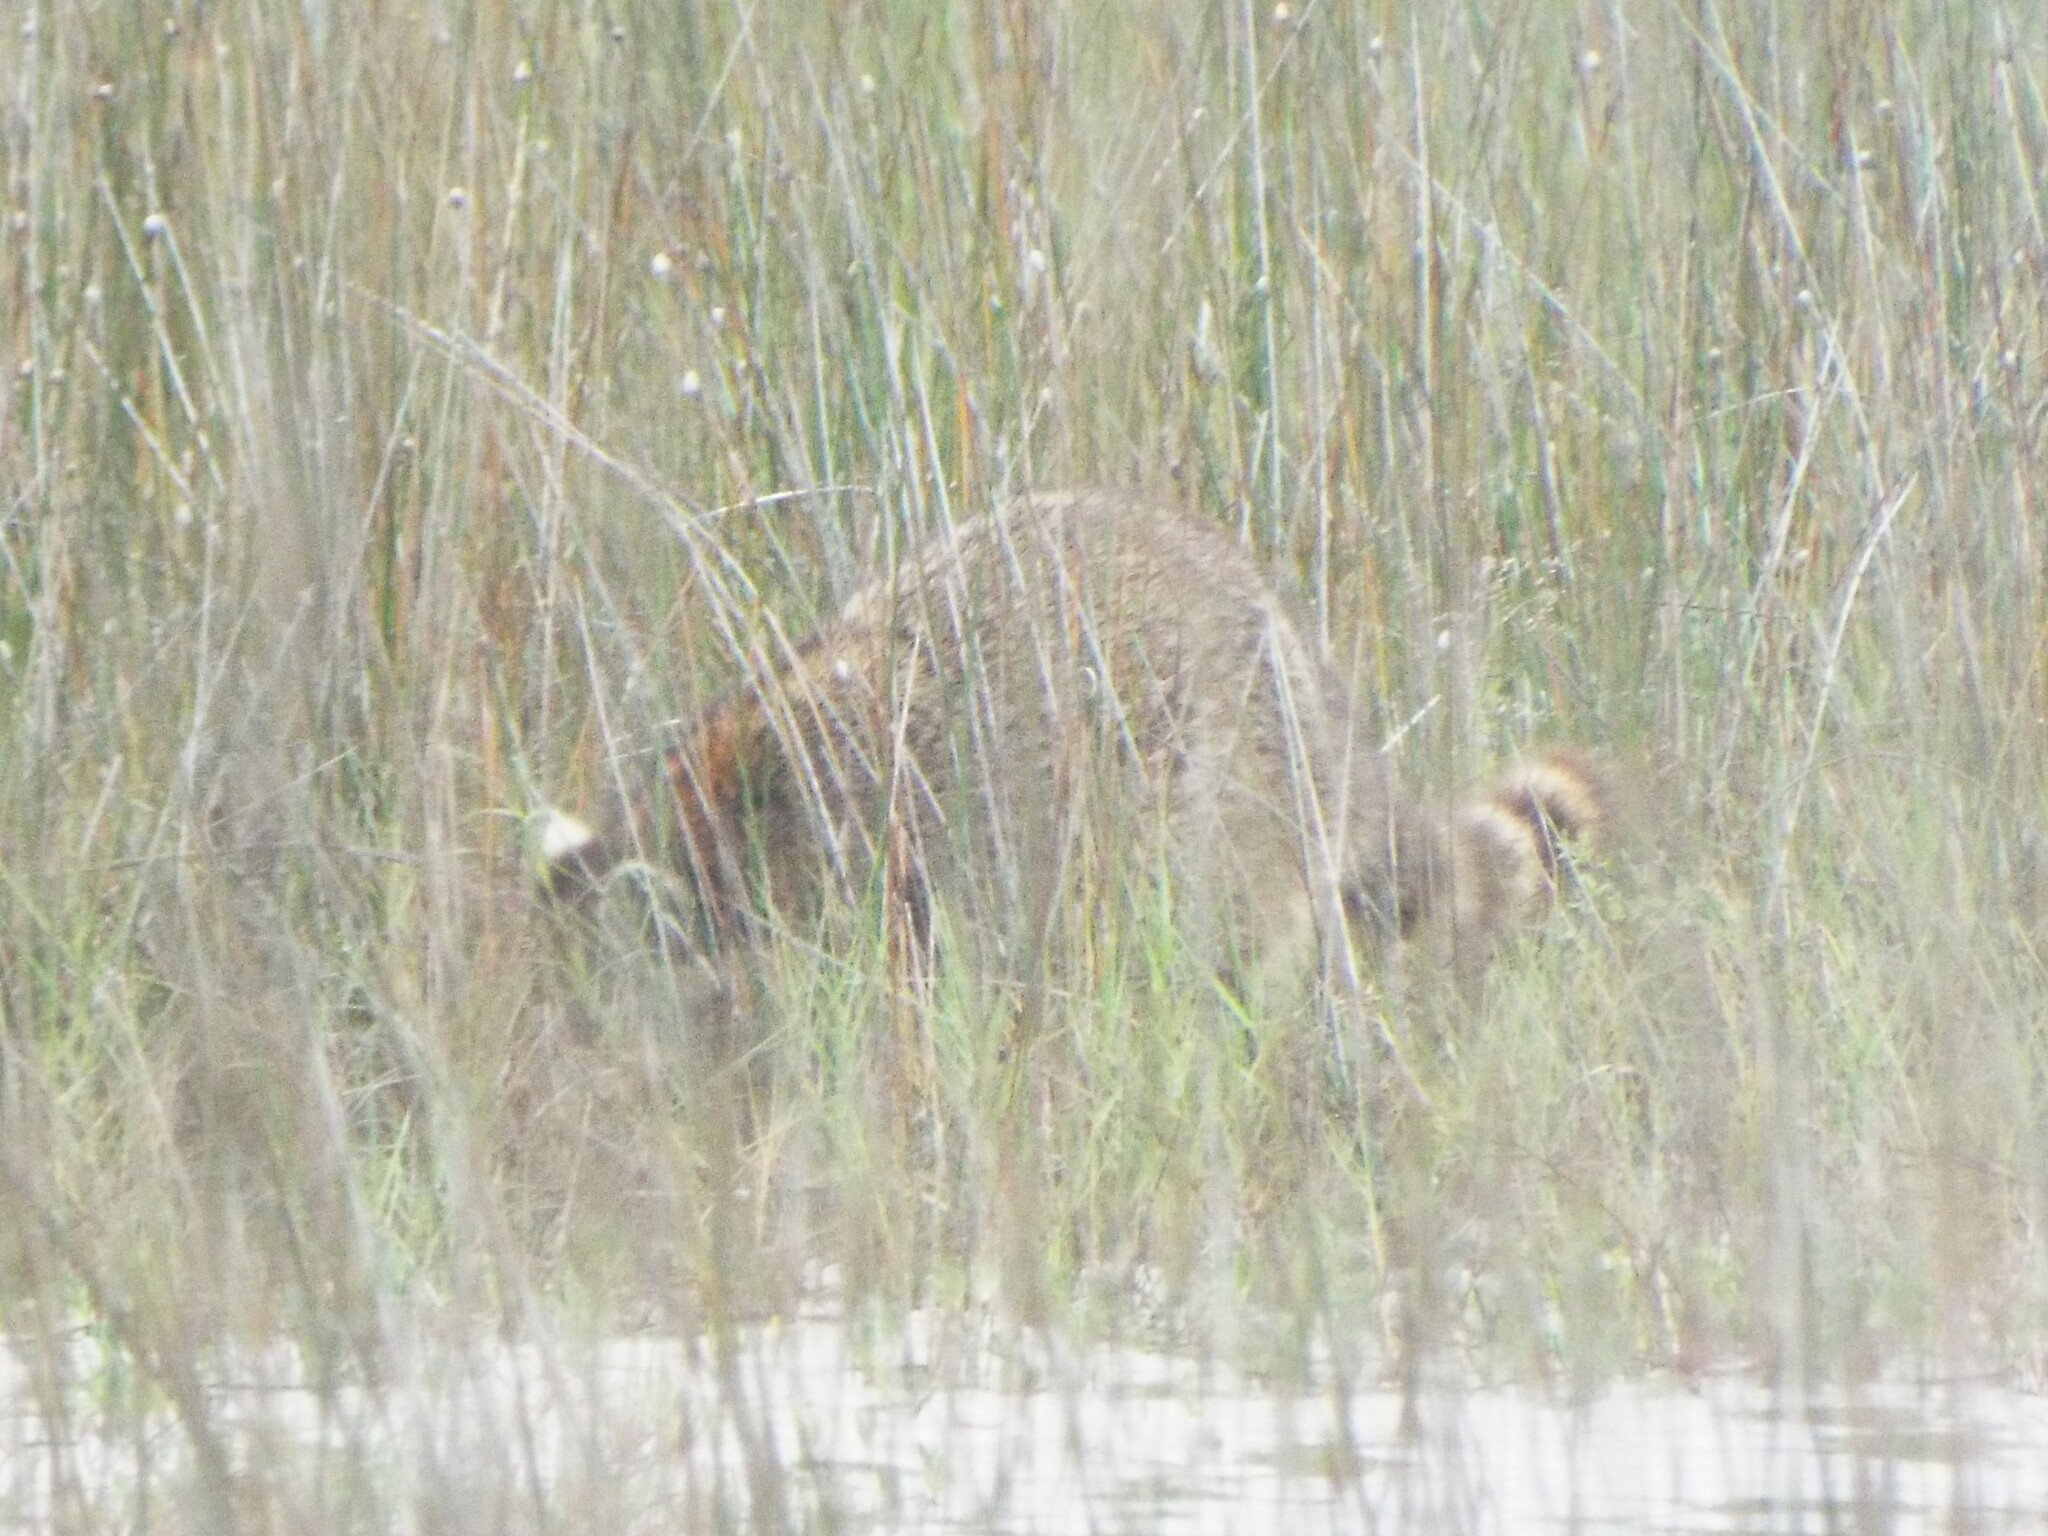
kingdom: Animalia
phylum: Chordata
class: Mammalia
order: Carnivora
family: Procyonidae
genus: Procyon
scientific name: Procyon lotor
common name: Raccoon
